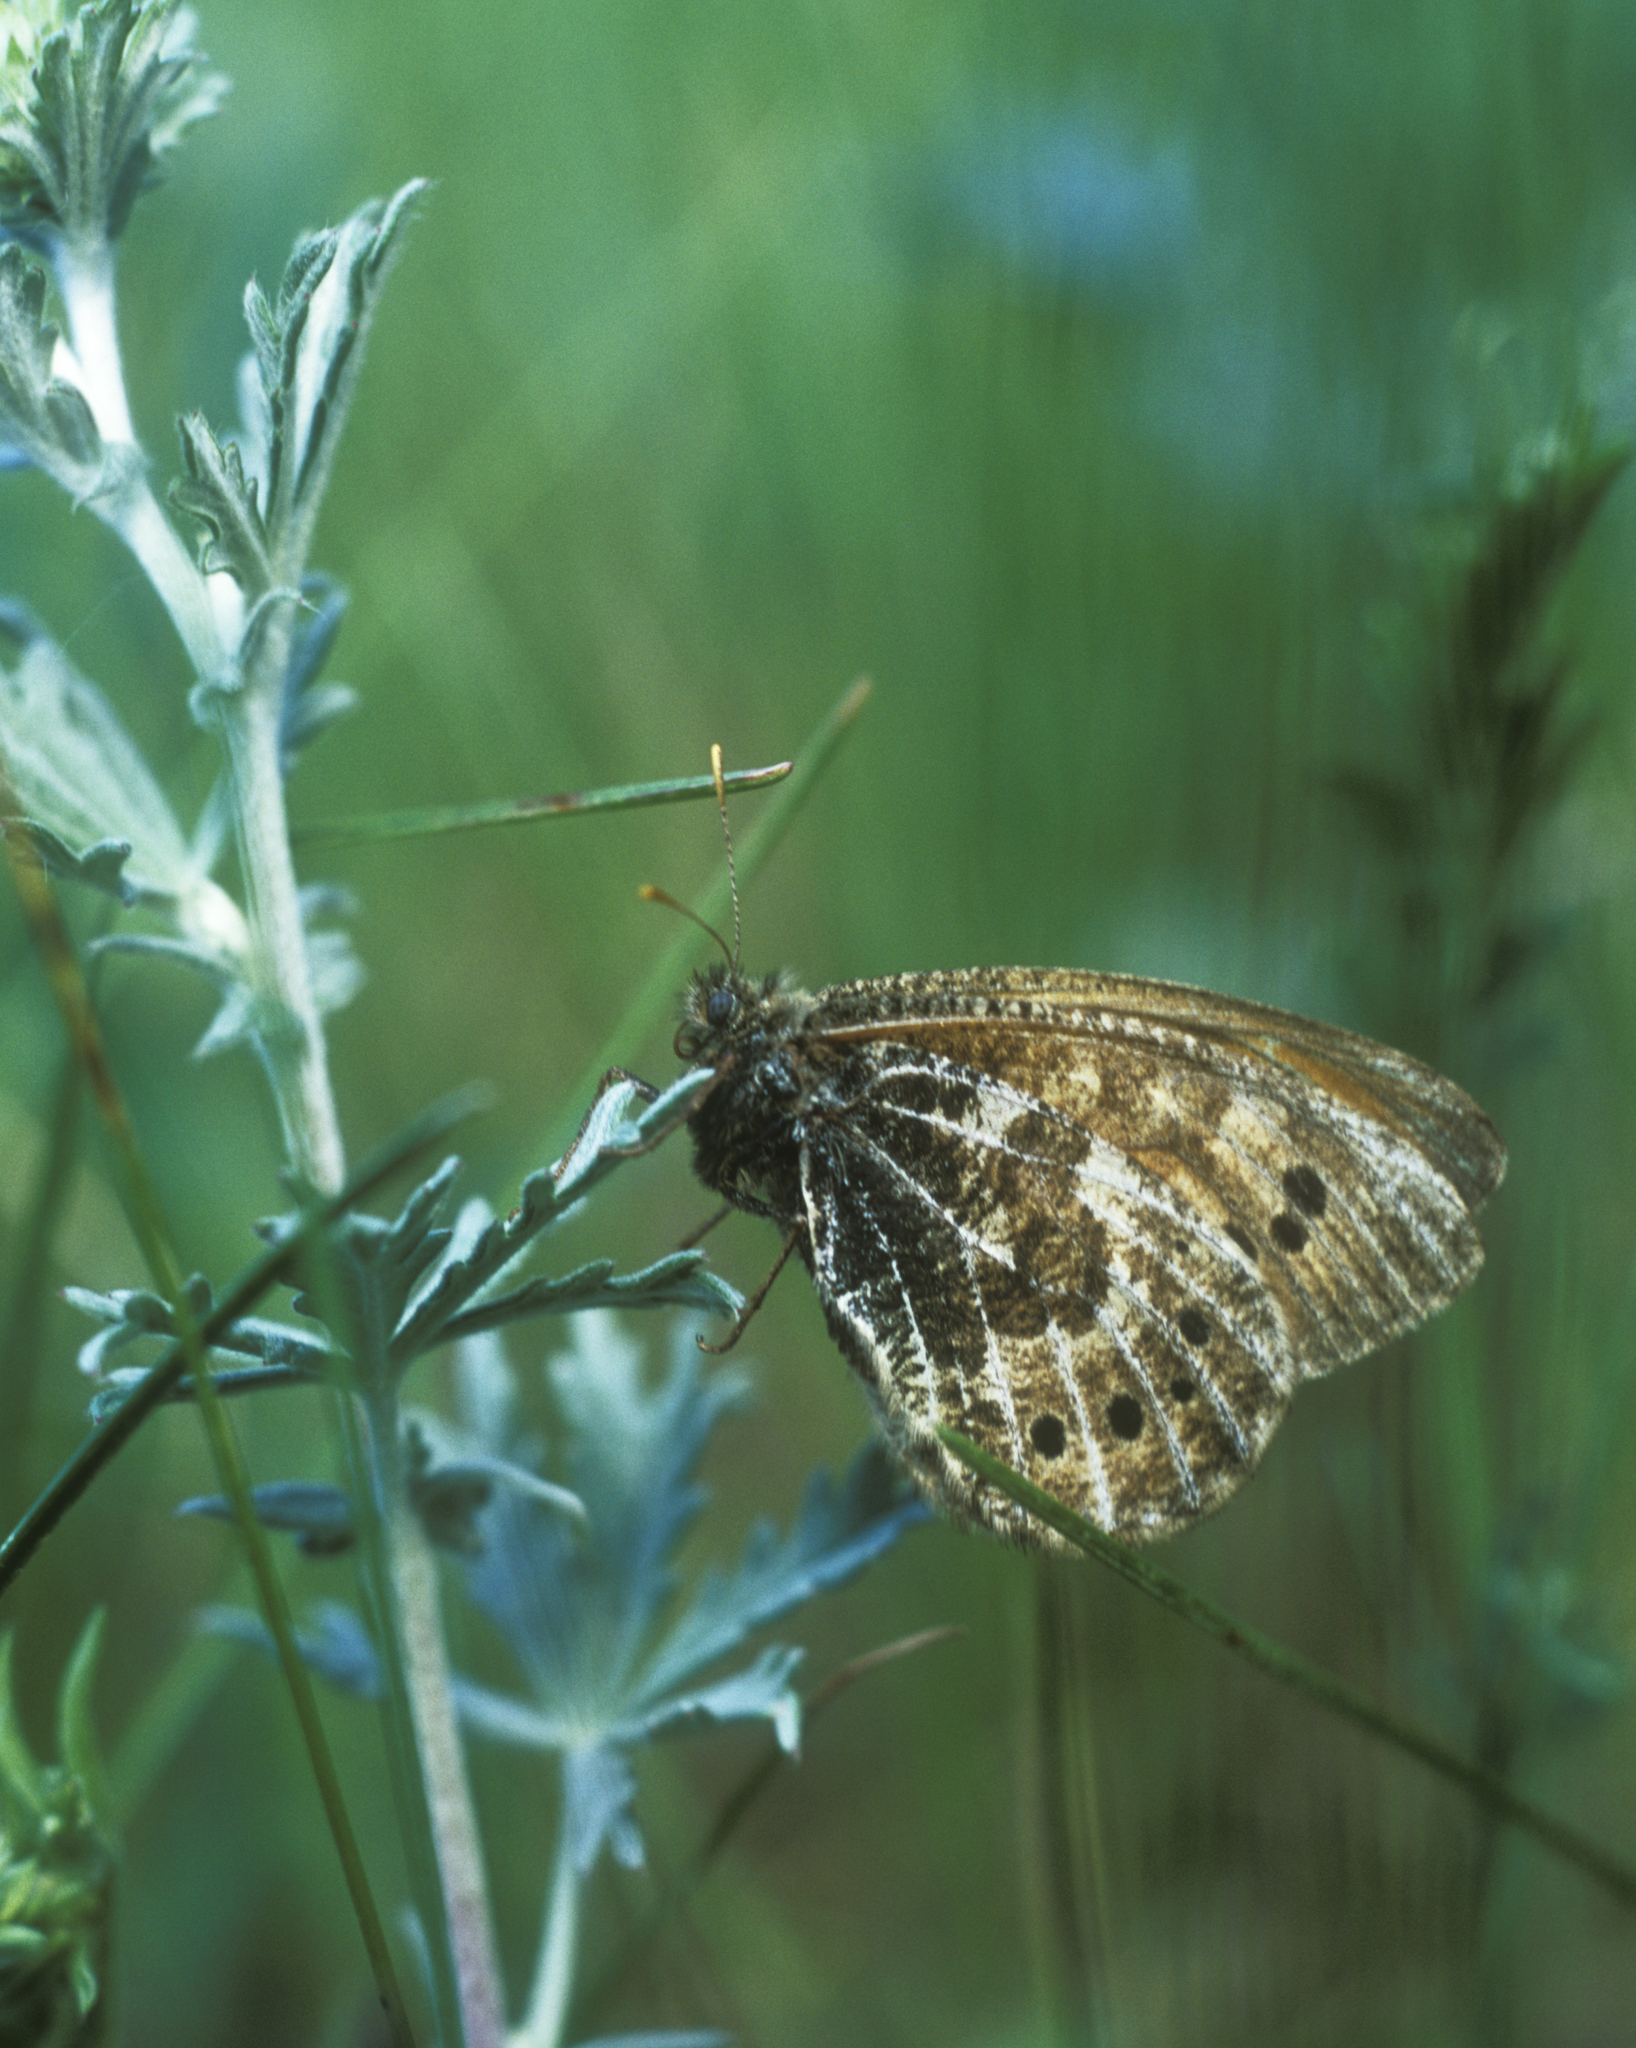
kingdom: Animalia
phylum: Arthropoda
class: Insecta
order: Lepidoptera
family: Nymphalidae
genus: Oeneis
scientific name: Oeneis tarpeia
